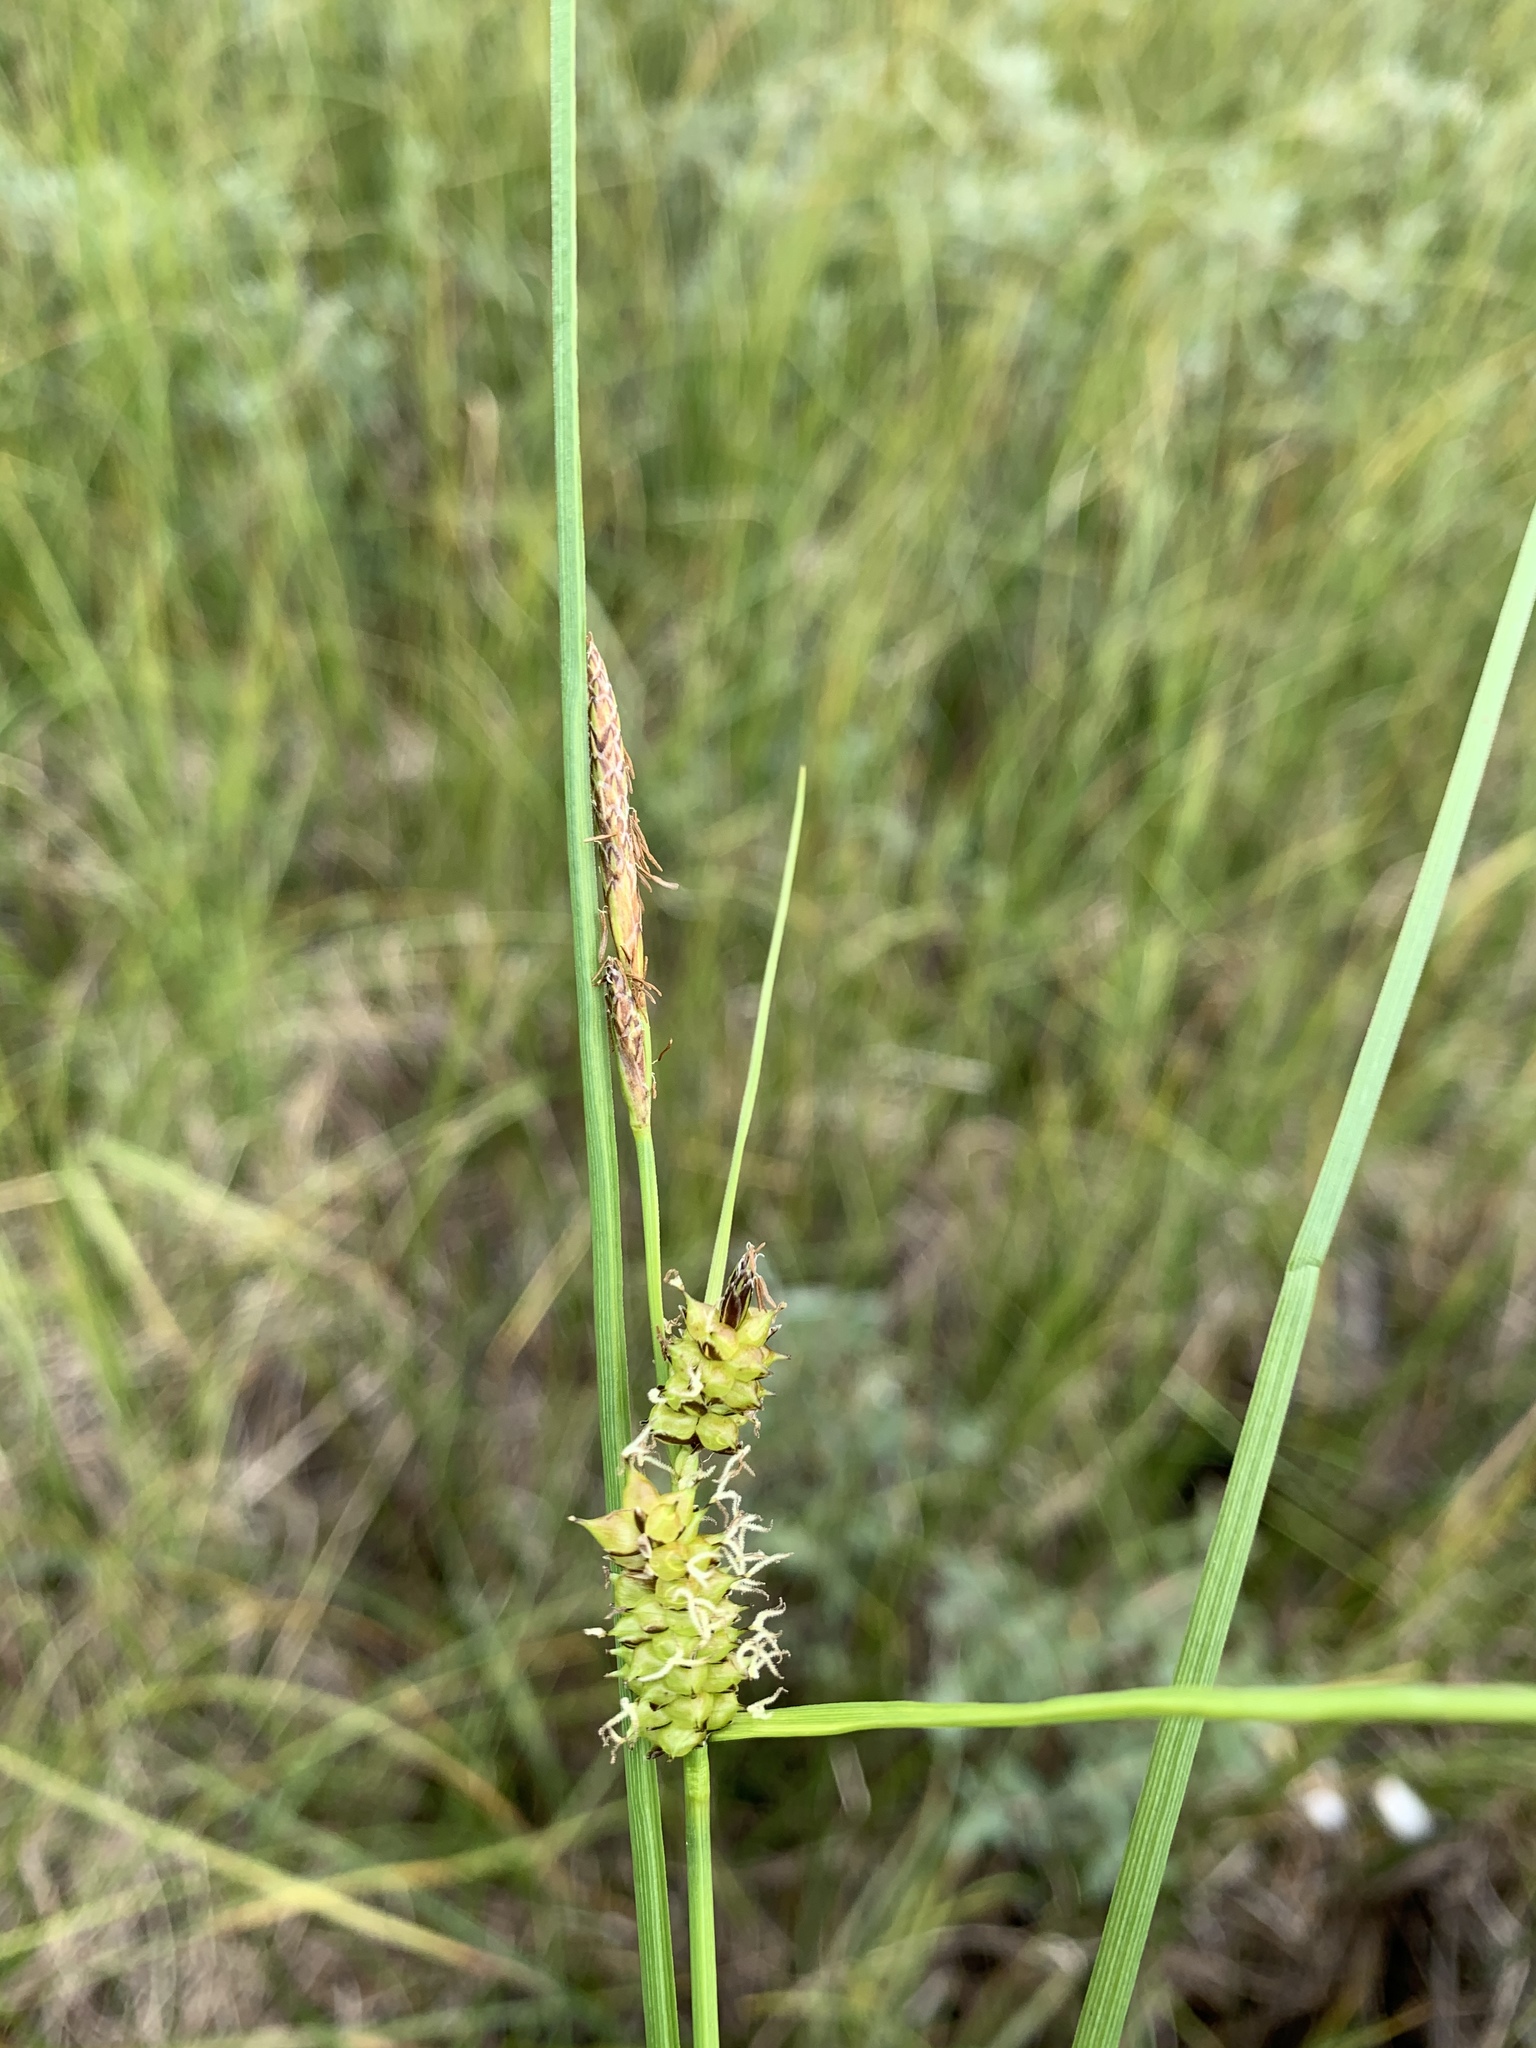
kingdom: Plantae
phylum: Tracheophyta
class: Liliopsida
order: Poales
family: Cyperaceae
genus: Carex
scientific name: Carex rostrata
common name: Bottle sedge
